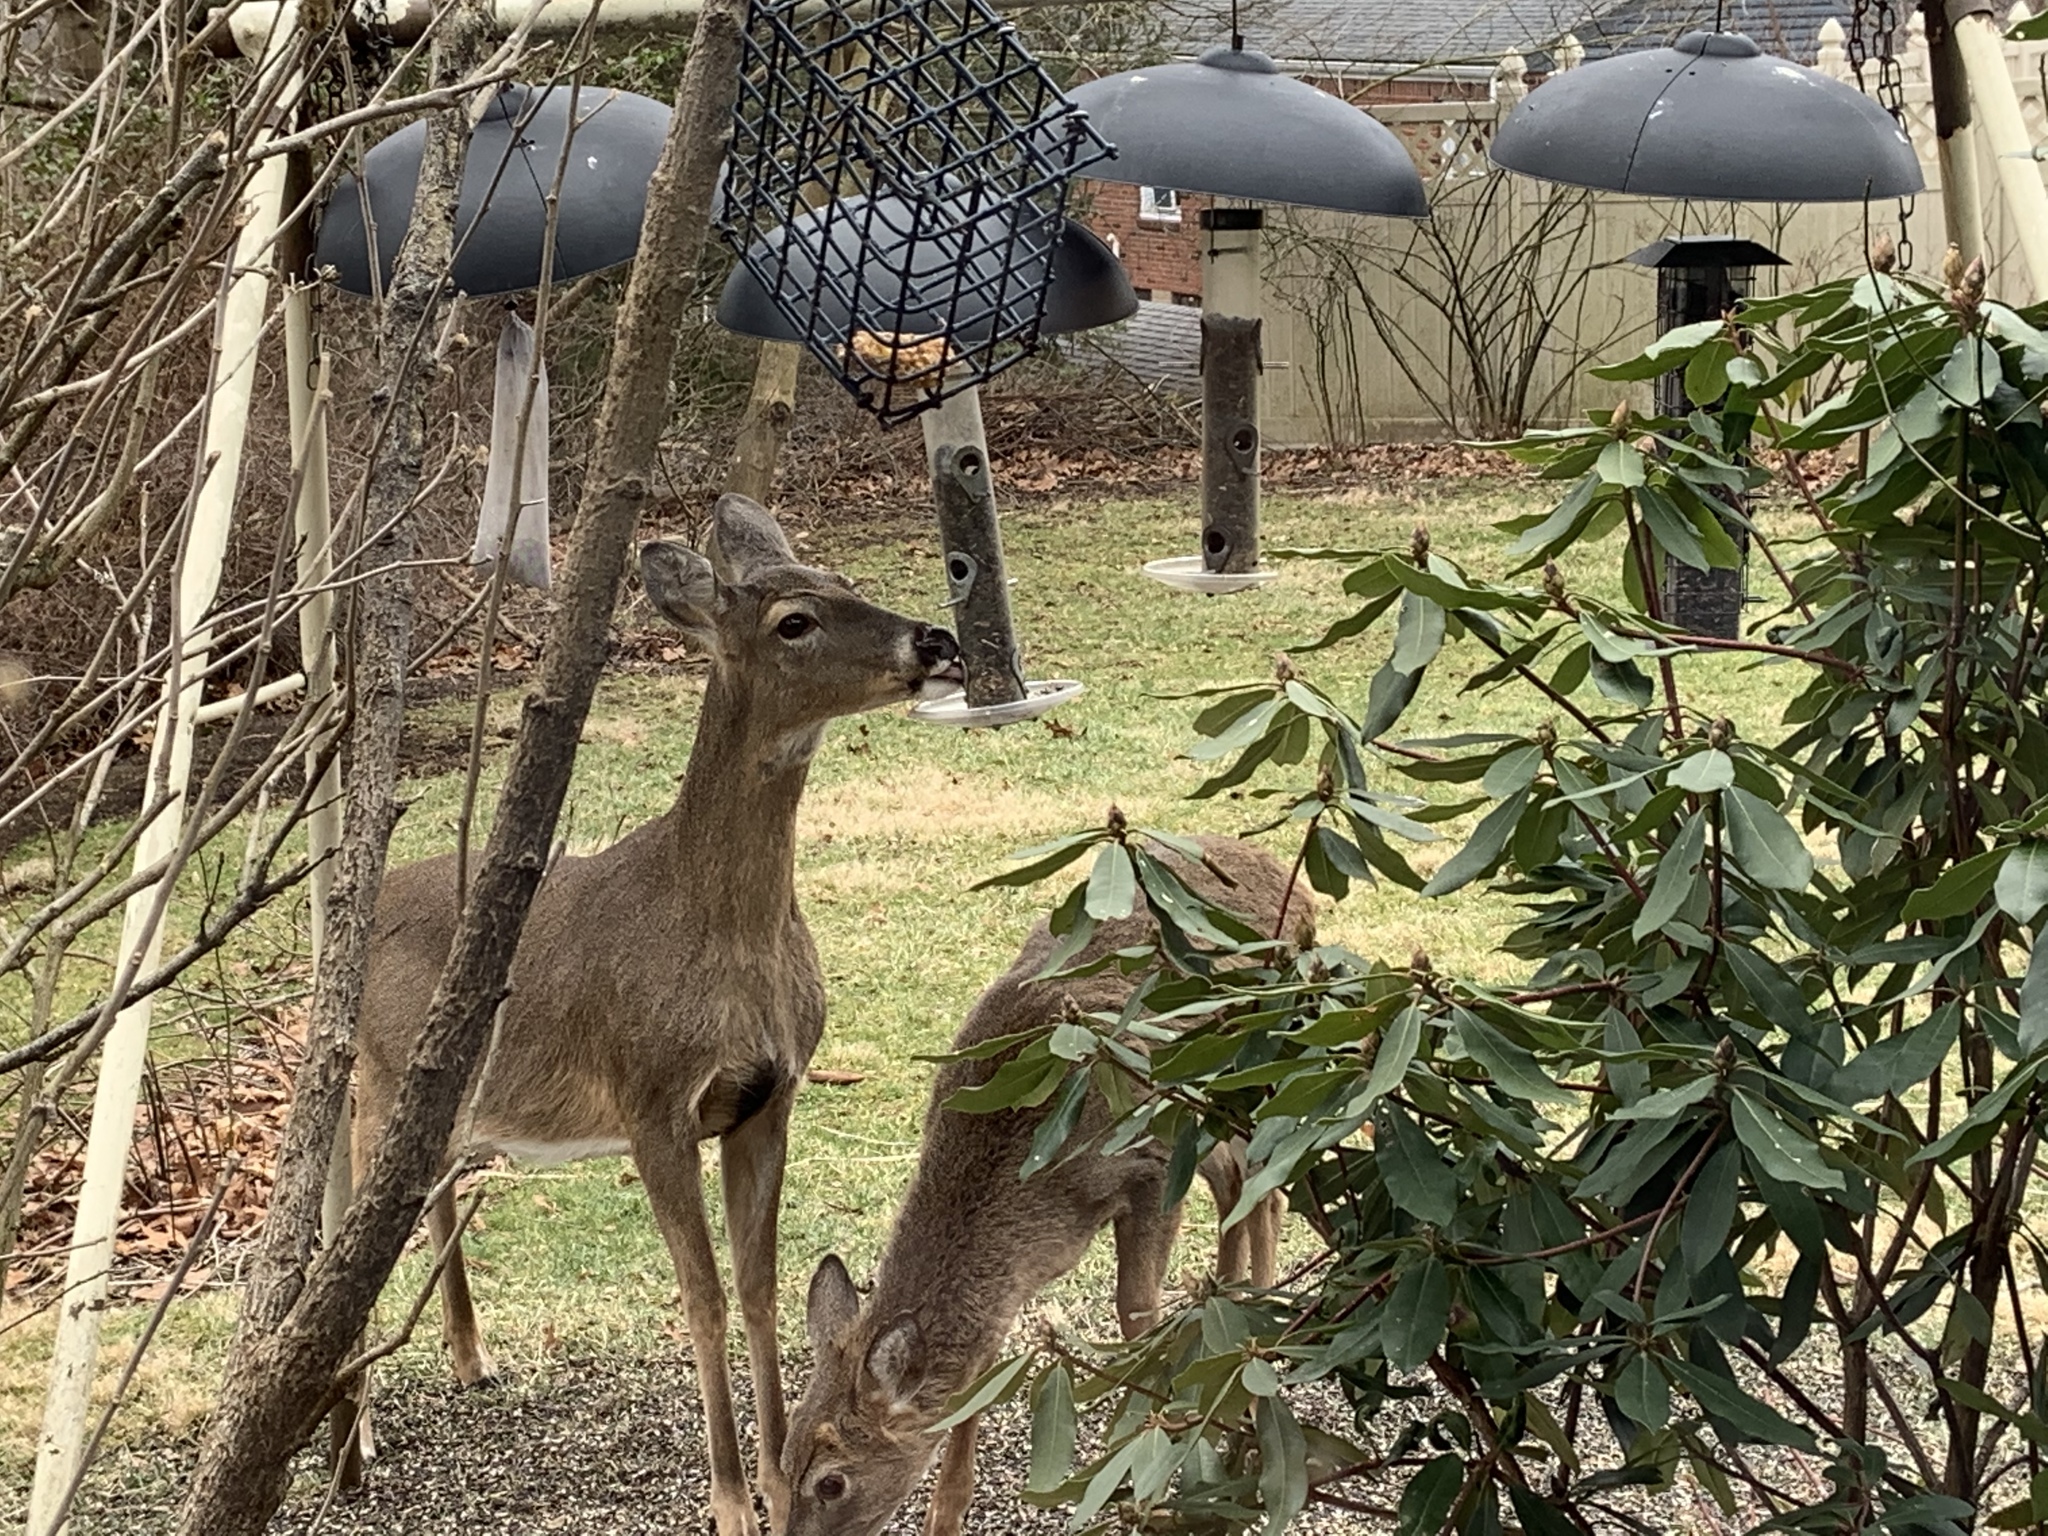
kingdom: Animalia
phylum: Chordata
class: Mammalia
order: Artiodactyla
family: Cervidae
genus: Odocoileus
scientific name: Odocoileus virginianus
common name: White-tailed deer
